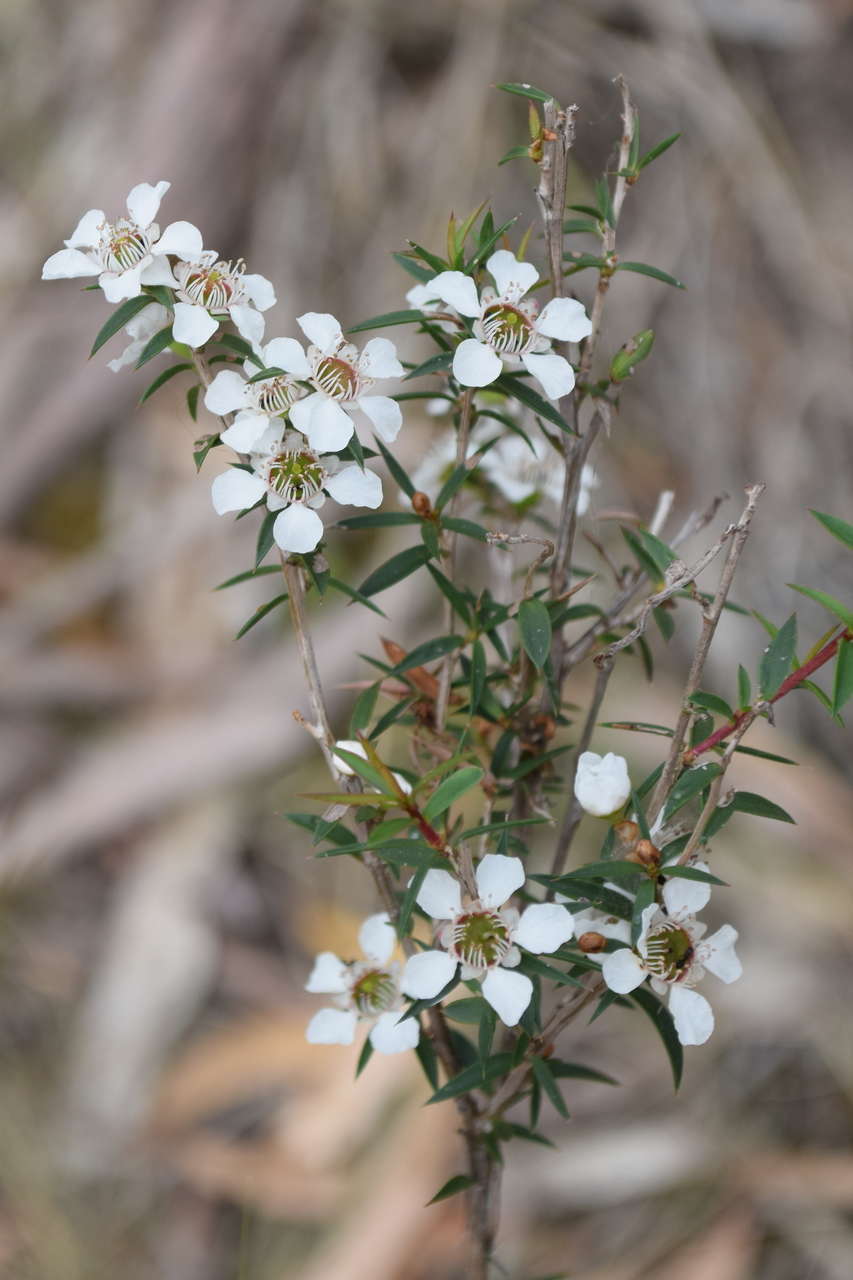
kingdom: Plantae
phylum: Tracheophyta
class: Magnoliopsida
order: Myrtales
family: Myrtaceae
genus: Leptospermum
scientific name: Leptospermum continentale
